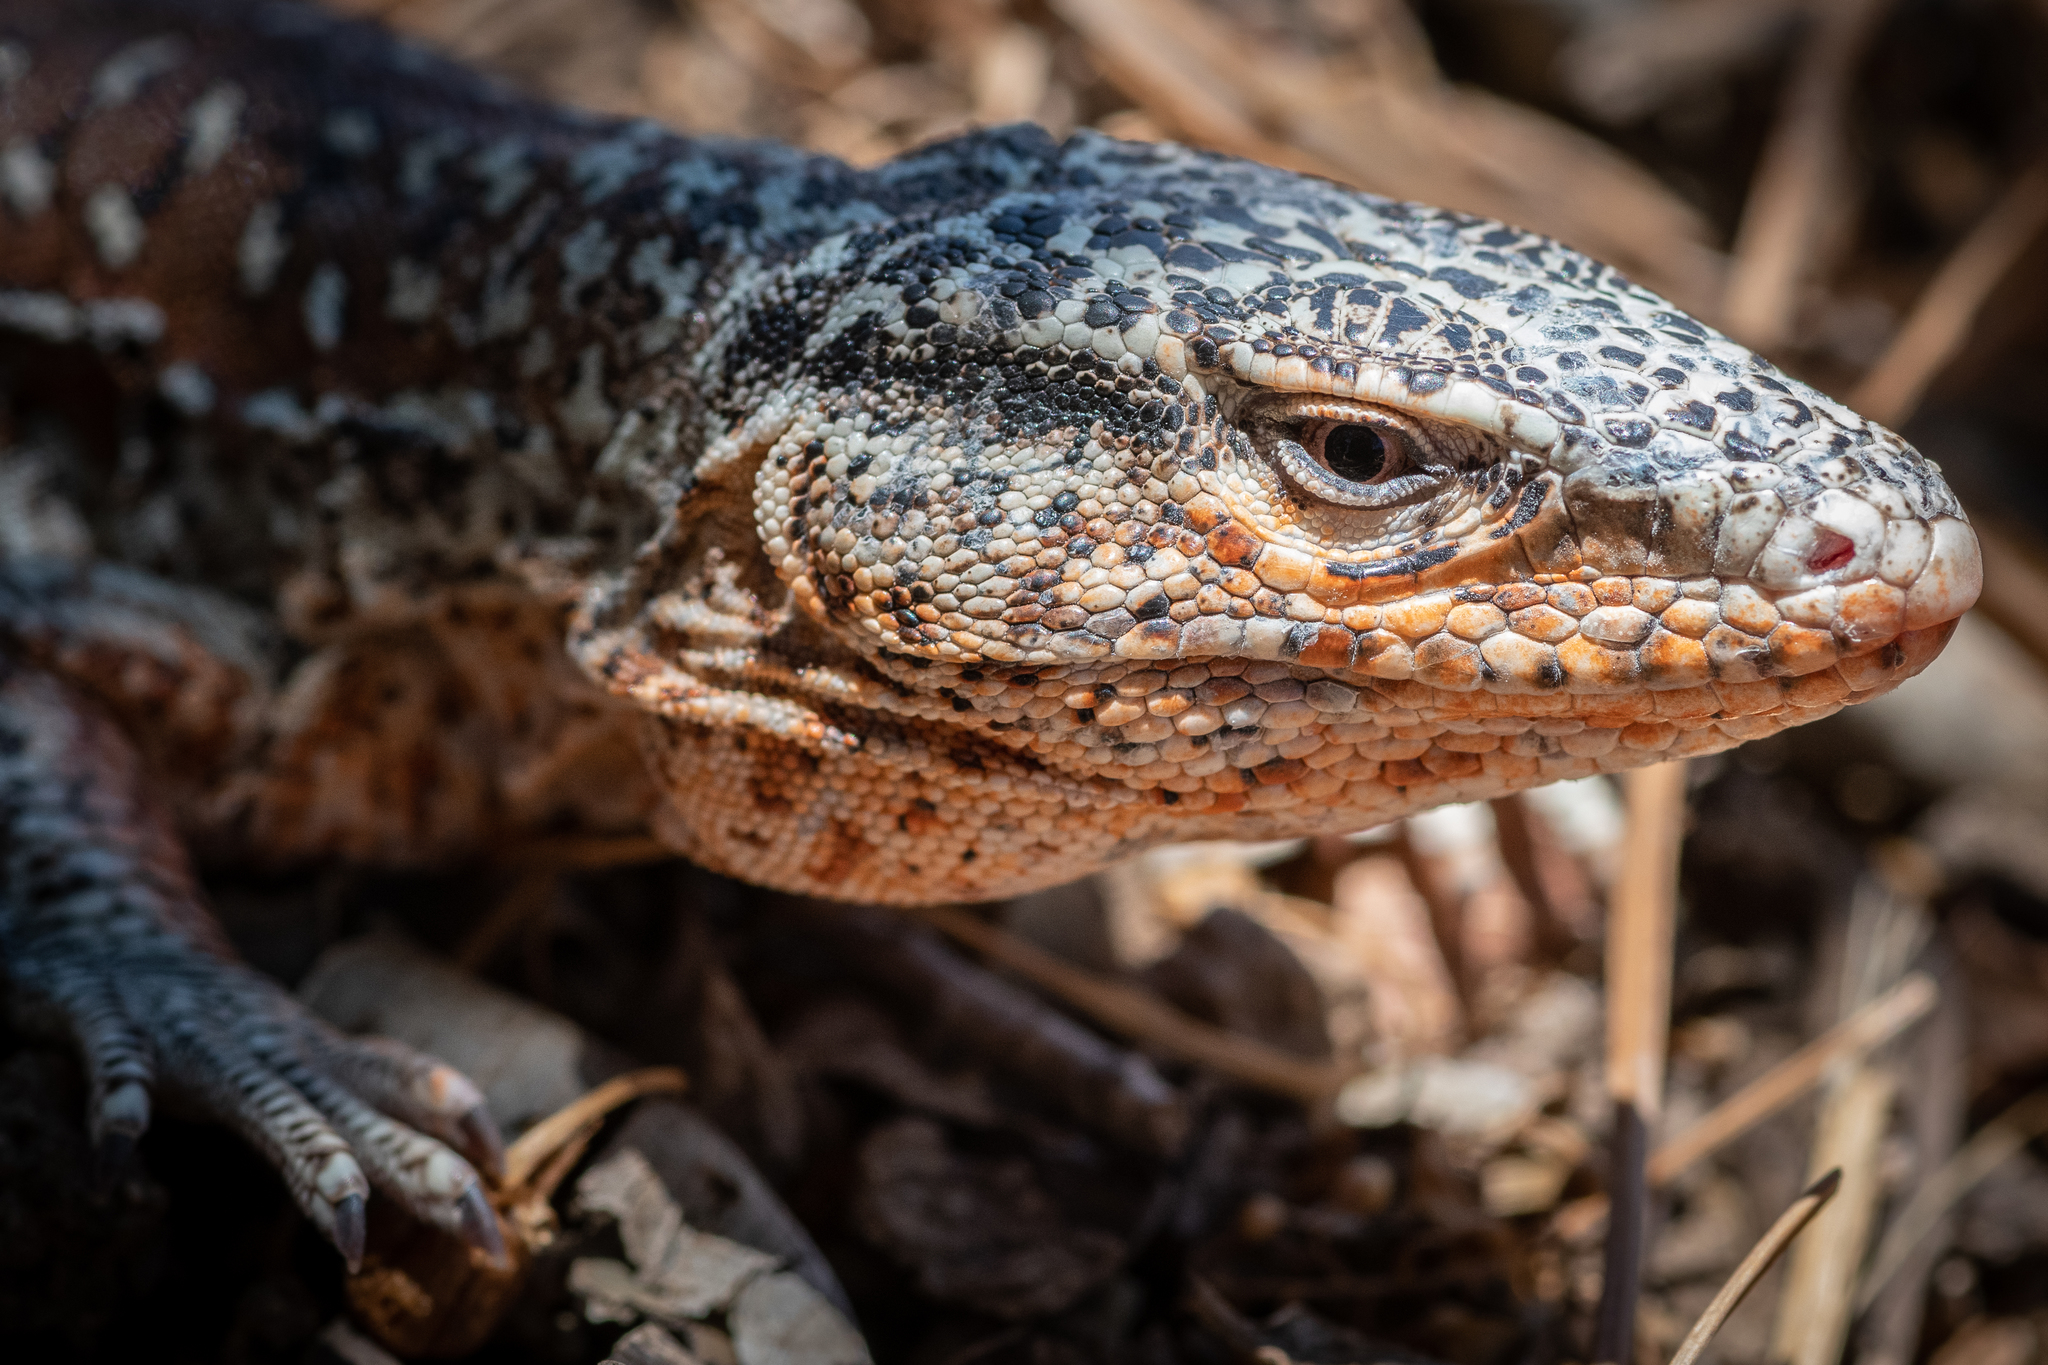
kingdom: Animalia
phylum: Chordata
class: Squamata
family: Teiidae
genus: Callopistes
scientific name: Callopistes maculatus
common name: Spotted false monitor
